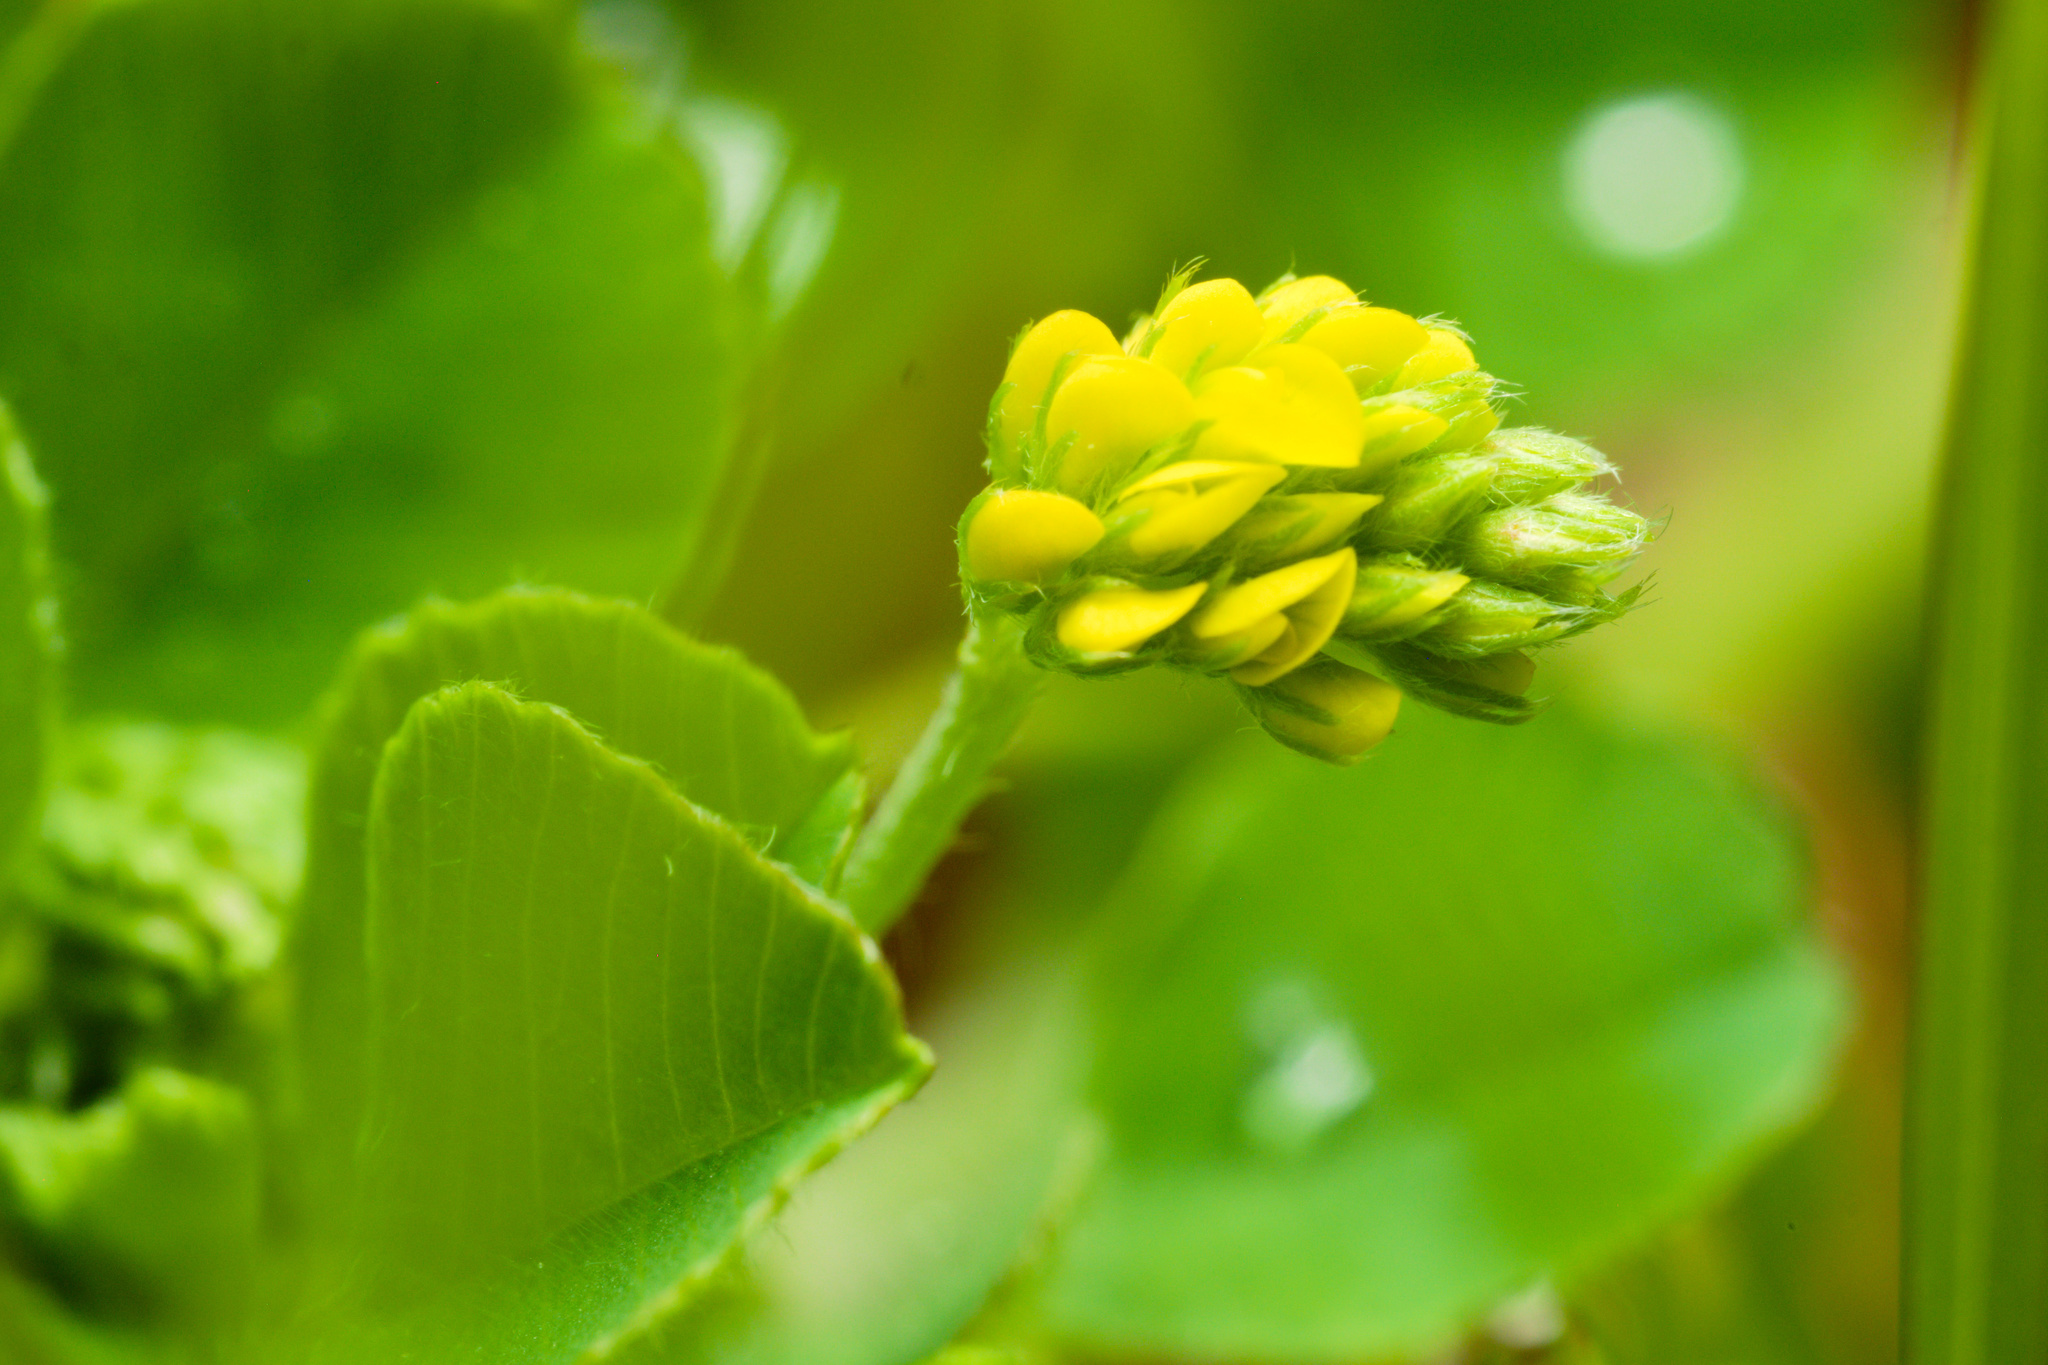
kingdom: Plantae
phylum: Tracheophyta
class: Magnoliopsida
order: Fabales
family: Fabaceae
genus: Medicago
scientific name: Medicago lupulina
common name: Black medick
